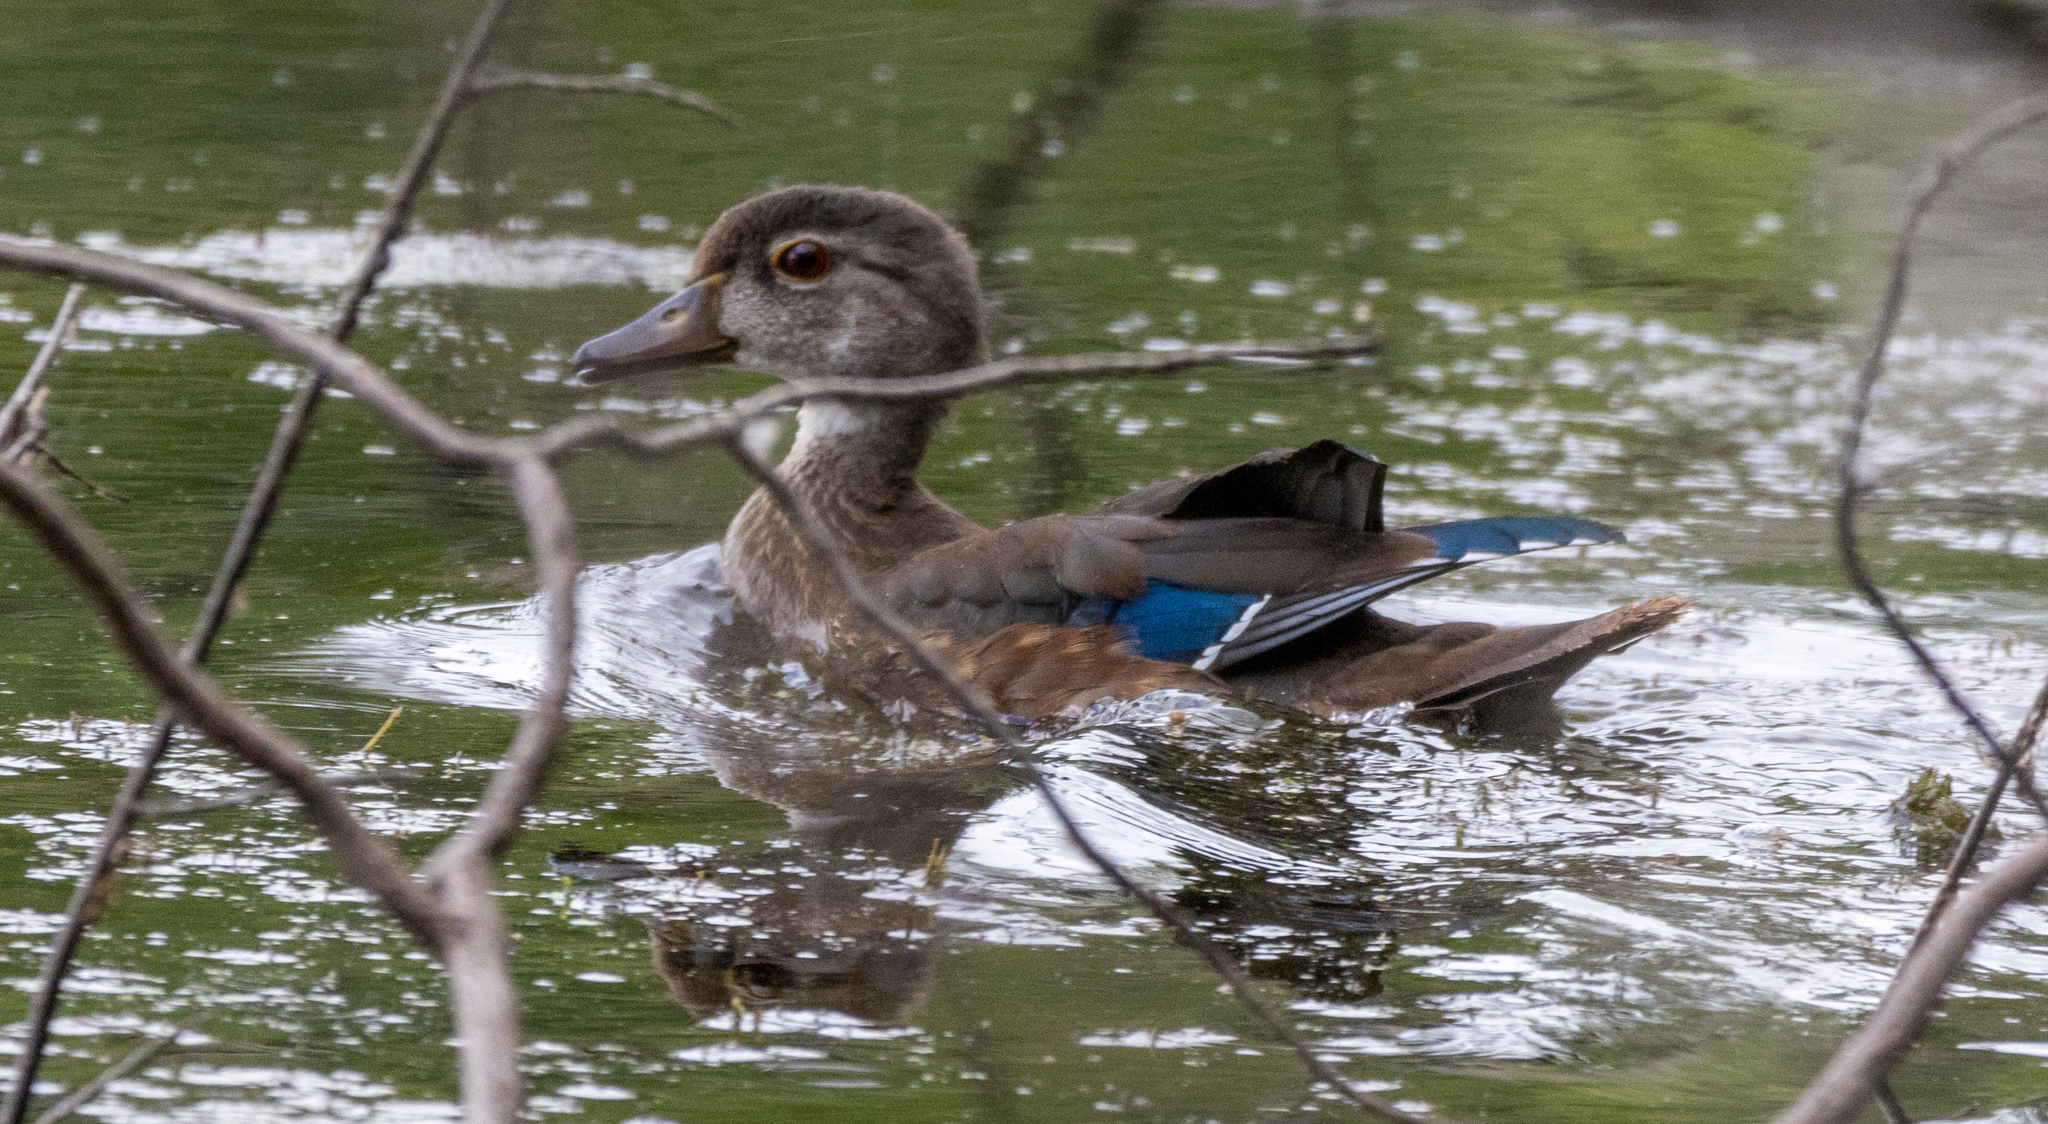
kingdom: Animalia
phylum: Chordata
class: Aves
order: Anseriformes
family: Anatidae
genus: Aix
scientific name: Aix sponsa
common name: Wood duck
